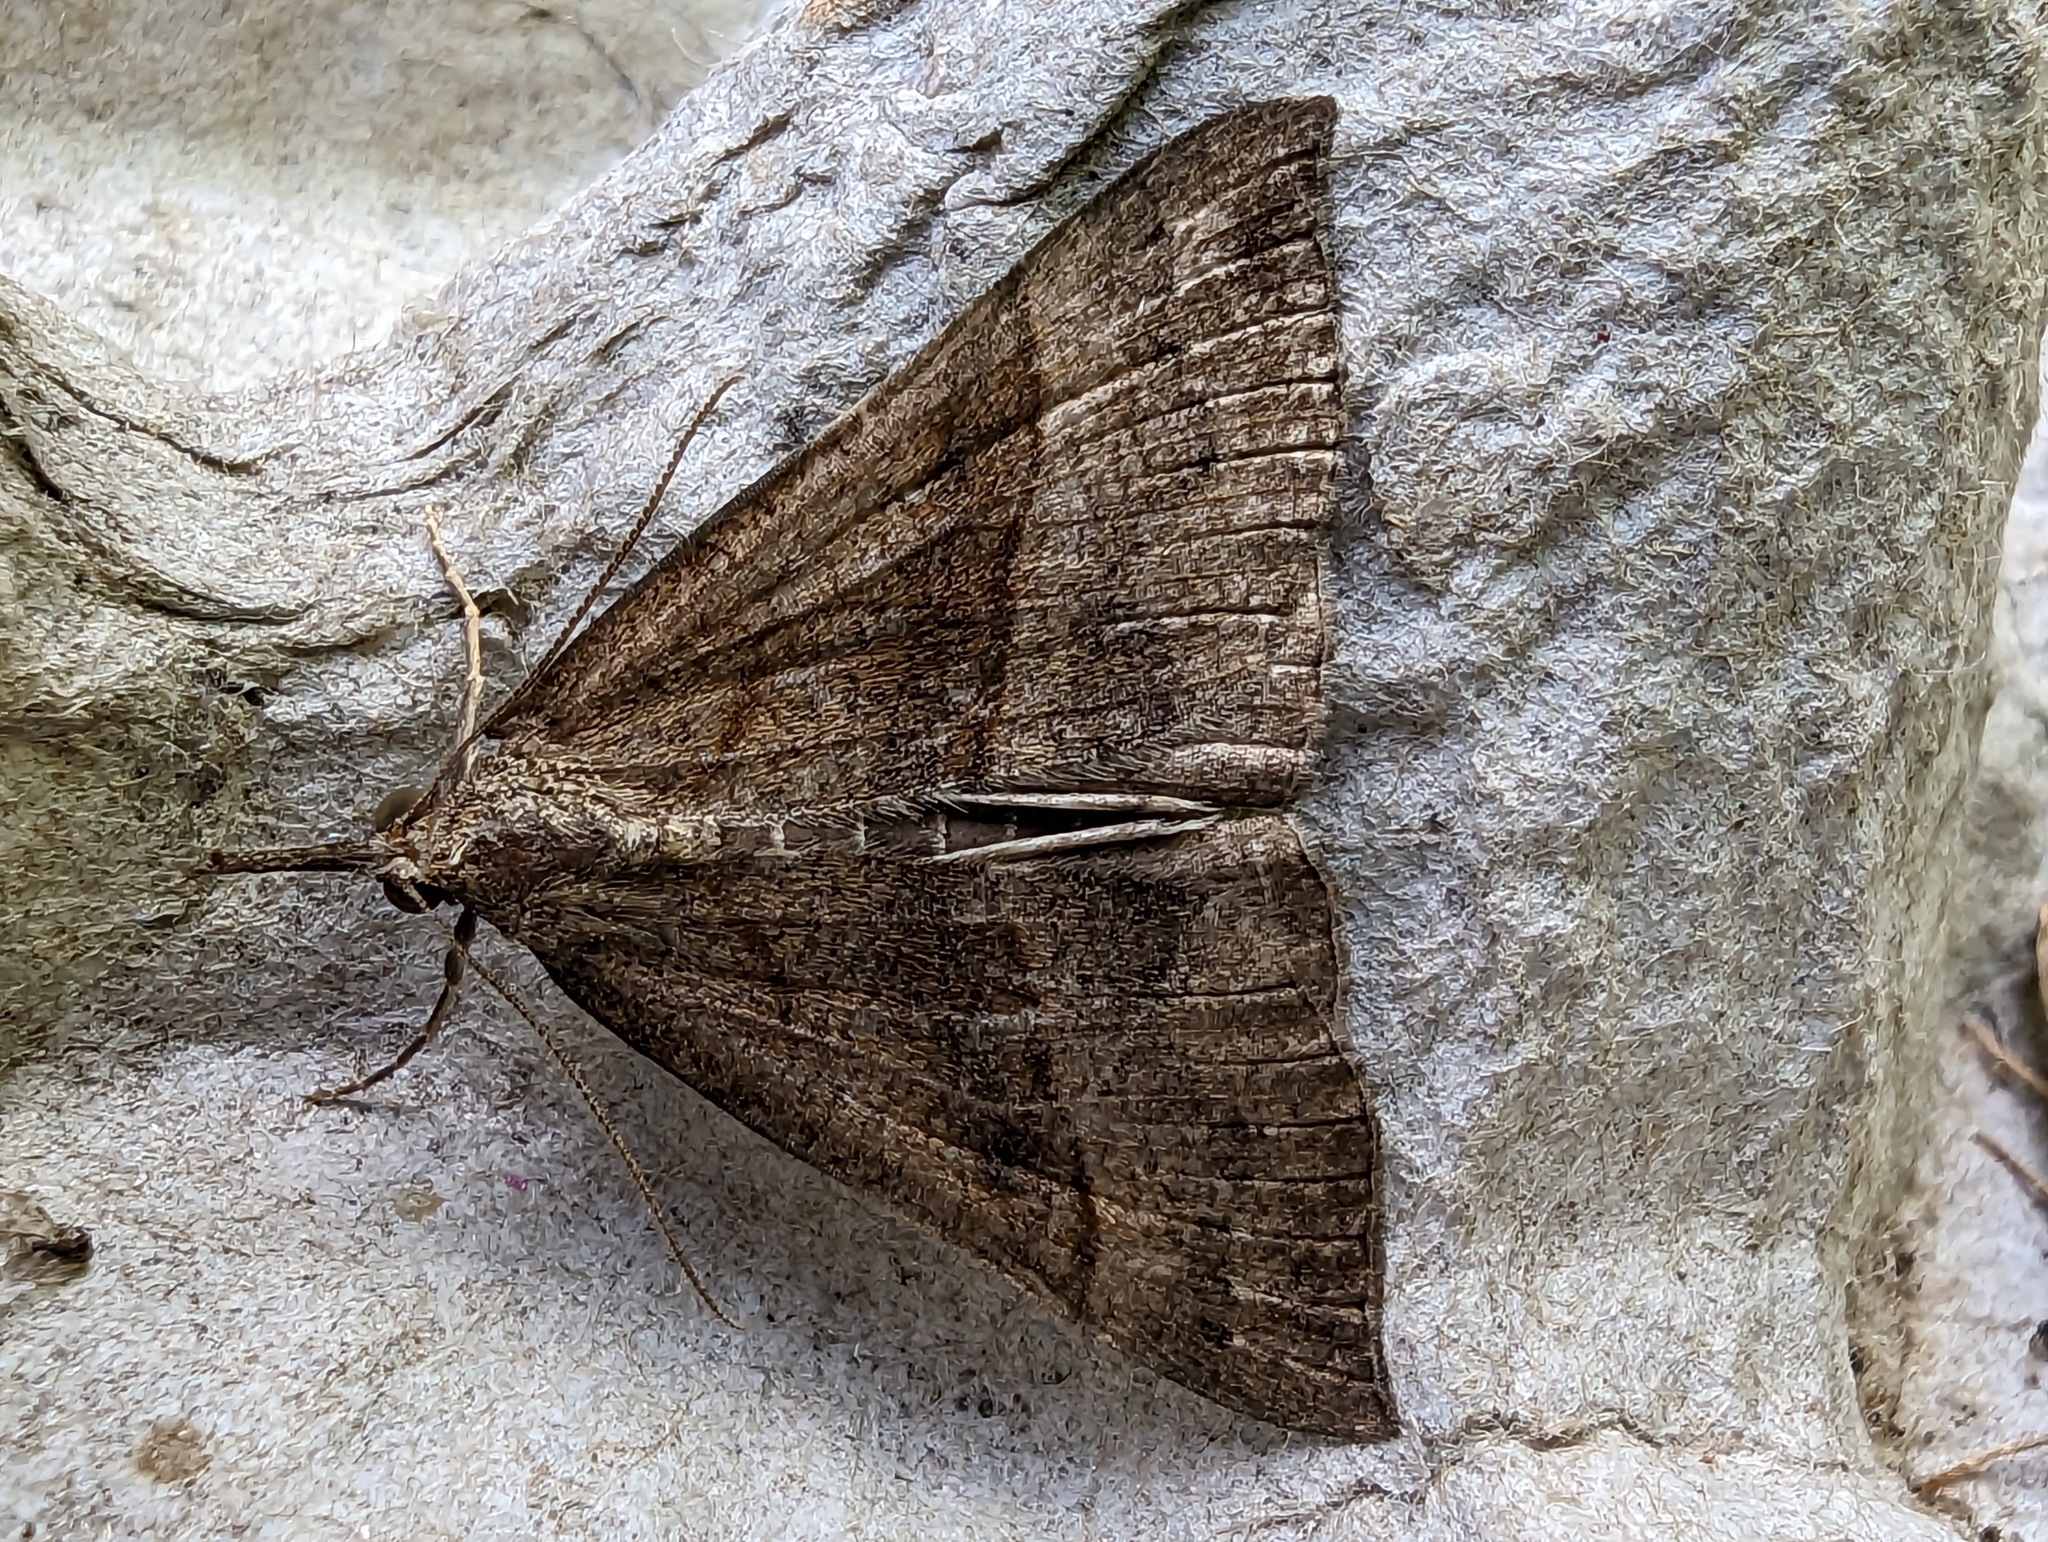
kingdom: Animalia
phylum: Arthropoda
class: Insecta
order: Lepidoptera
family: Erebidae
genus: Hypena
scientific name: Hypena proboscidalis
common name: Snout
